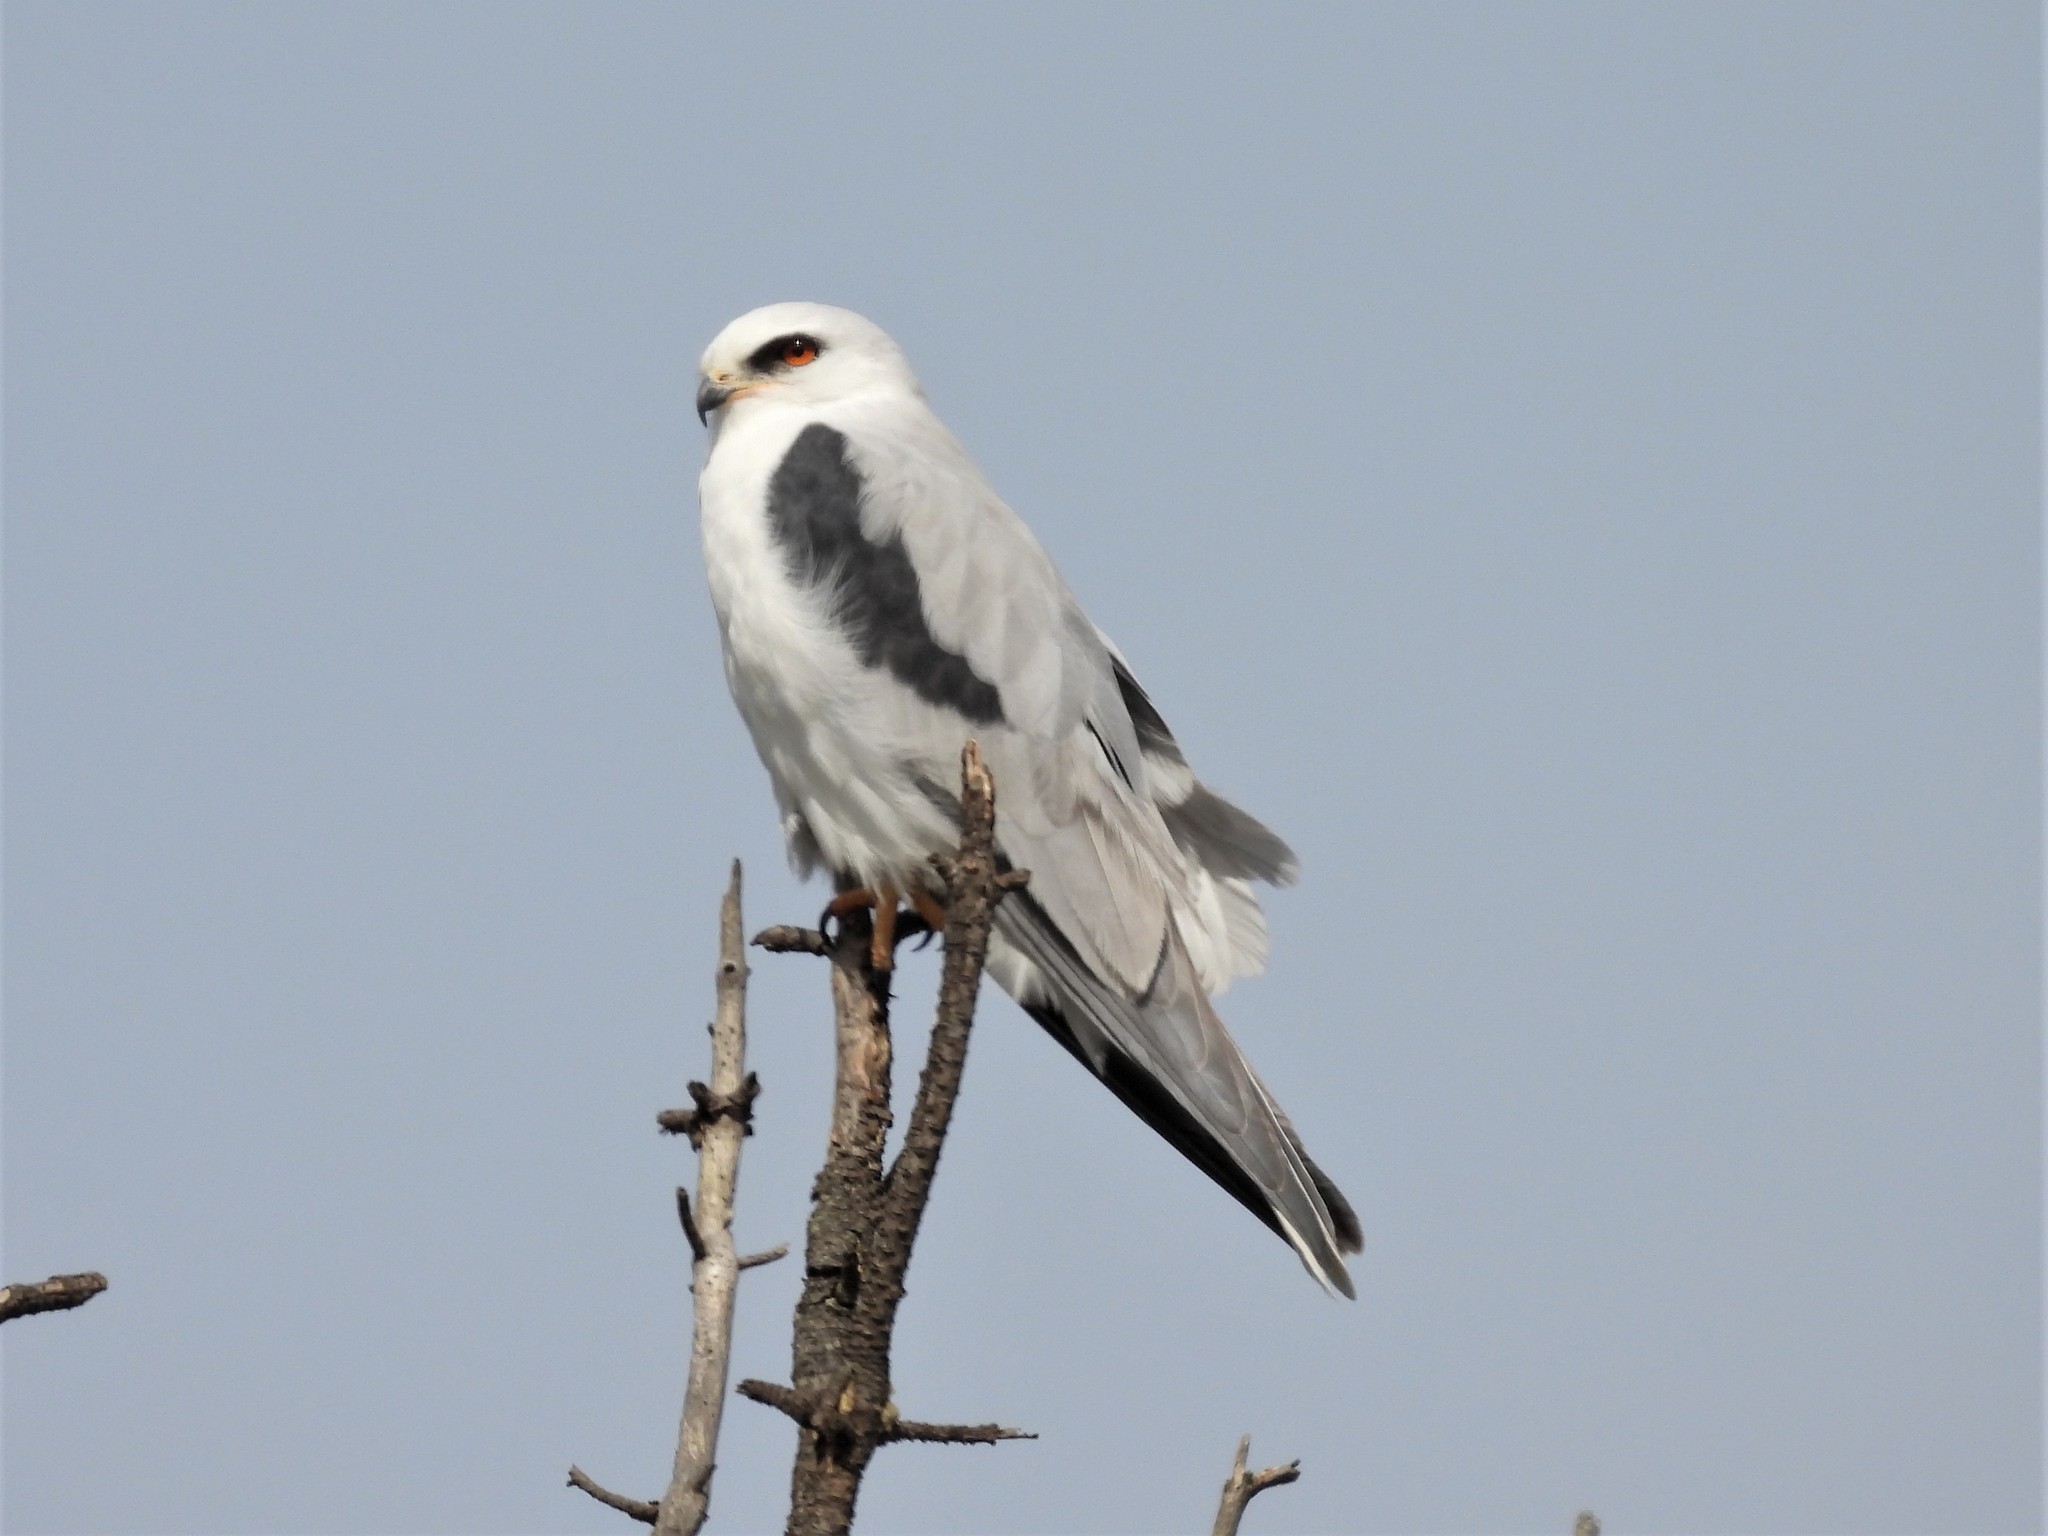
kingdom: Animalia
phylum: Chordata
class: Aves
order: Accipitriformes
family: Accipitridae
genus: Elanus
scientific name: Elanus leucurus
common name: White-tailed kite
